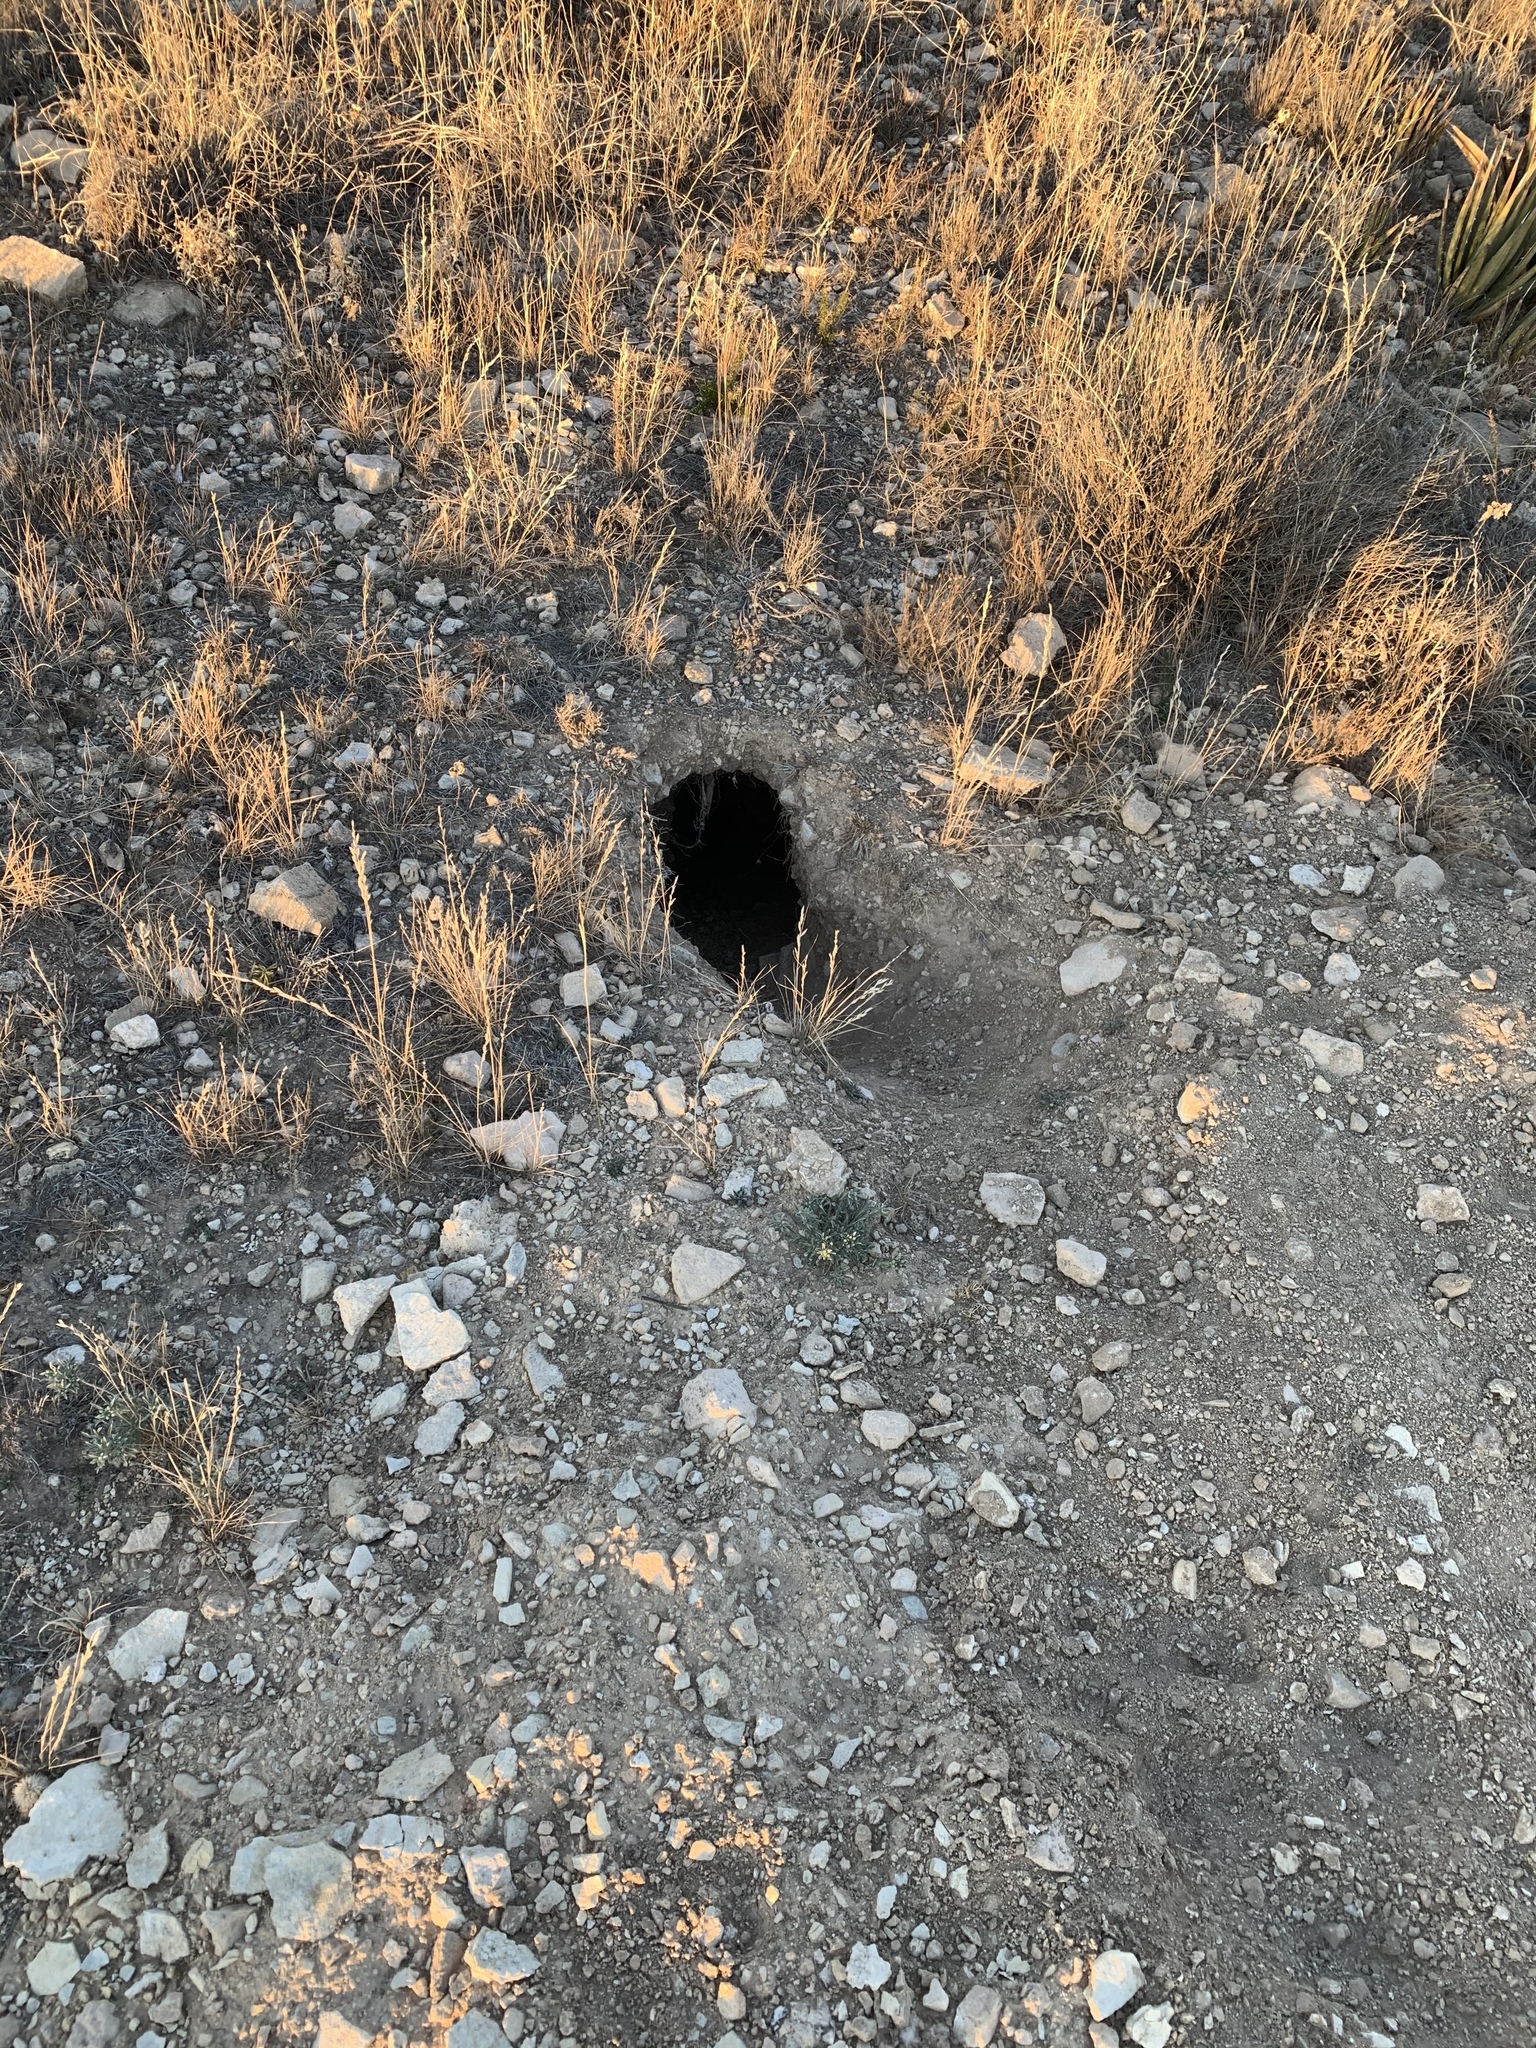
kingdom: Animalia
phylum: Chordata
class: Mammalia
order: Carnivora
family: Canidae
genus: Vulpes
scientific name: Vulpes macrotis
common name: Kit fox
